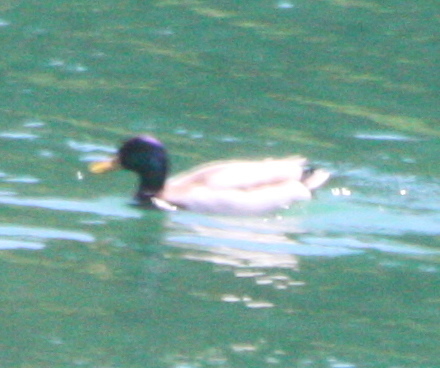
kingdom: Animalia
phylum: Chordata
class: Aves
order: Anseriformes
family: Anatidae
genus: Anas
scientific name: Anas platyrhynchos
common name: Mallard
